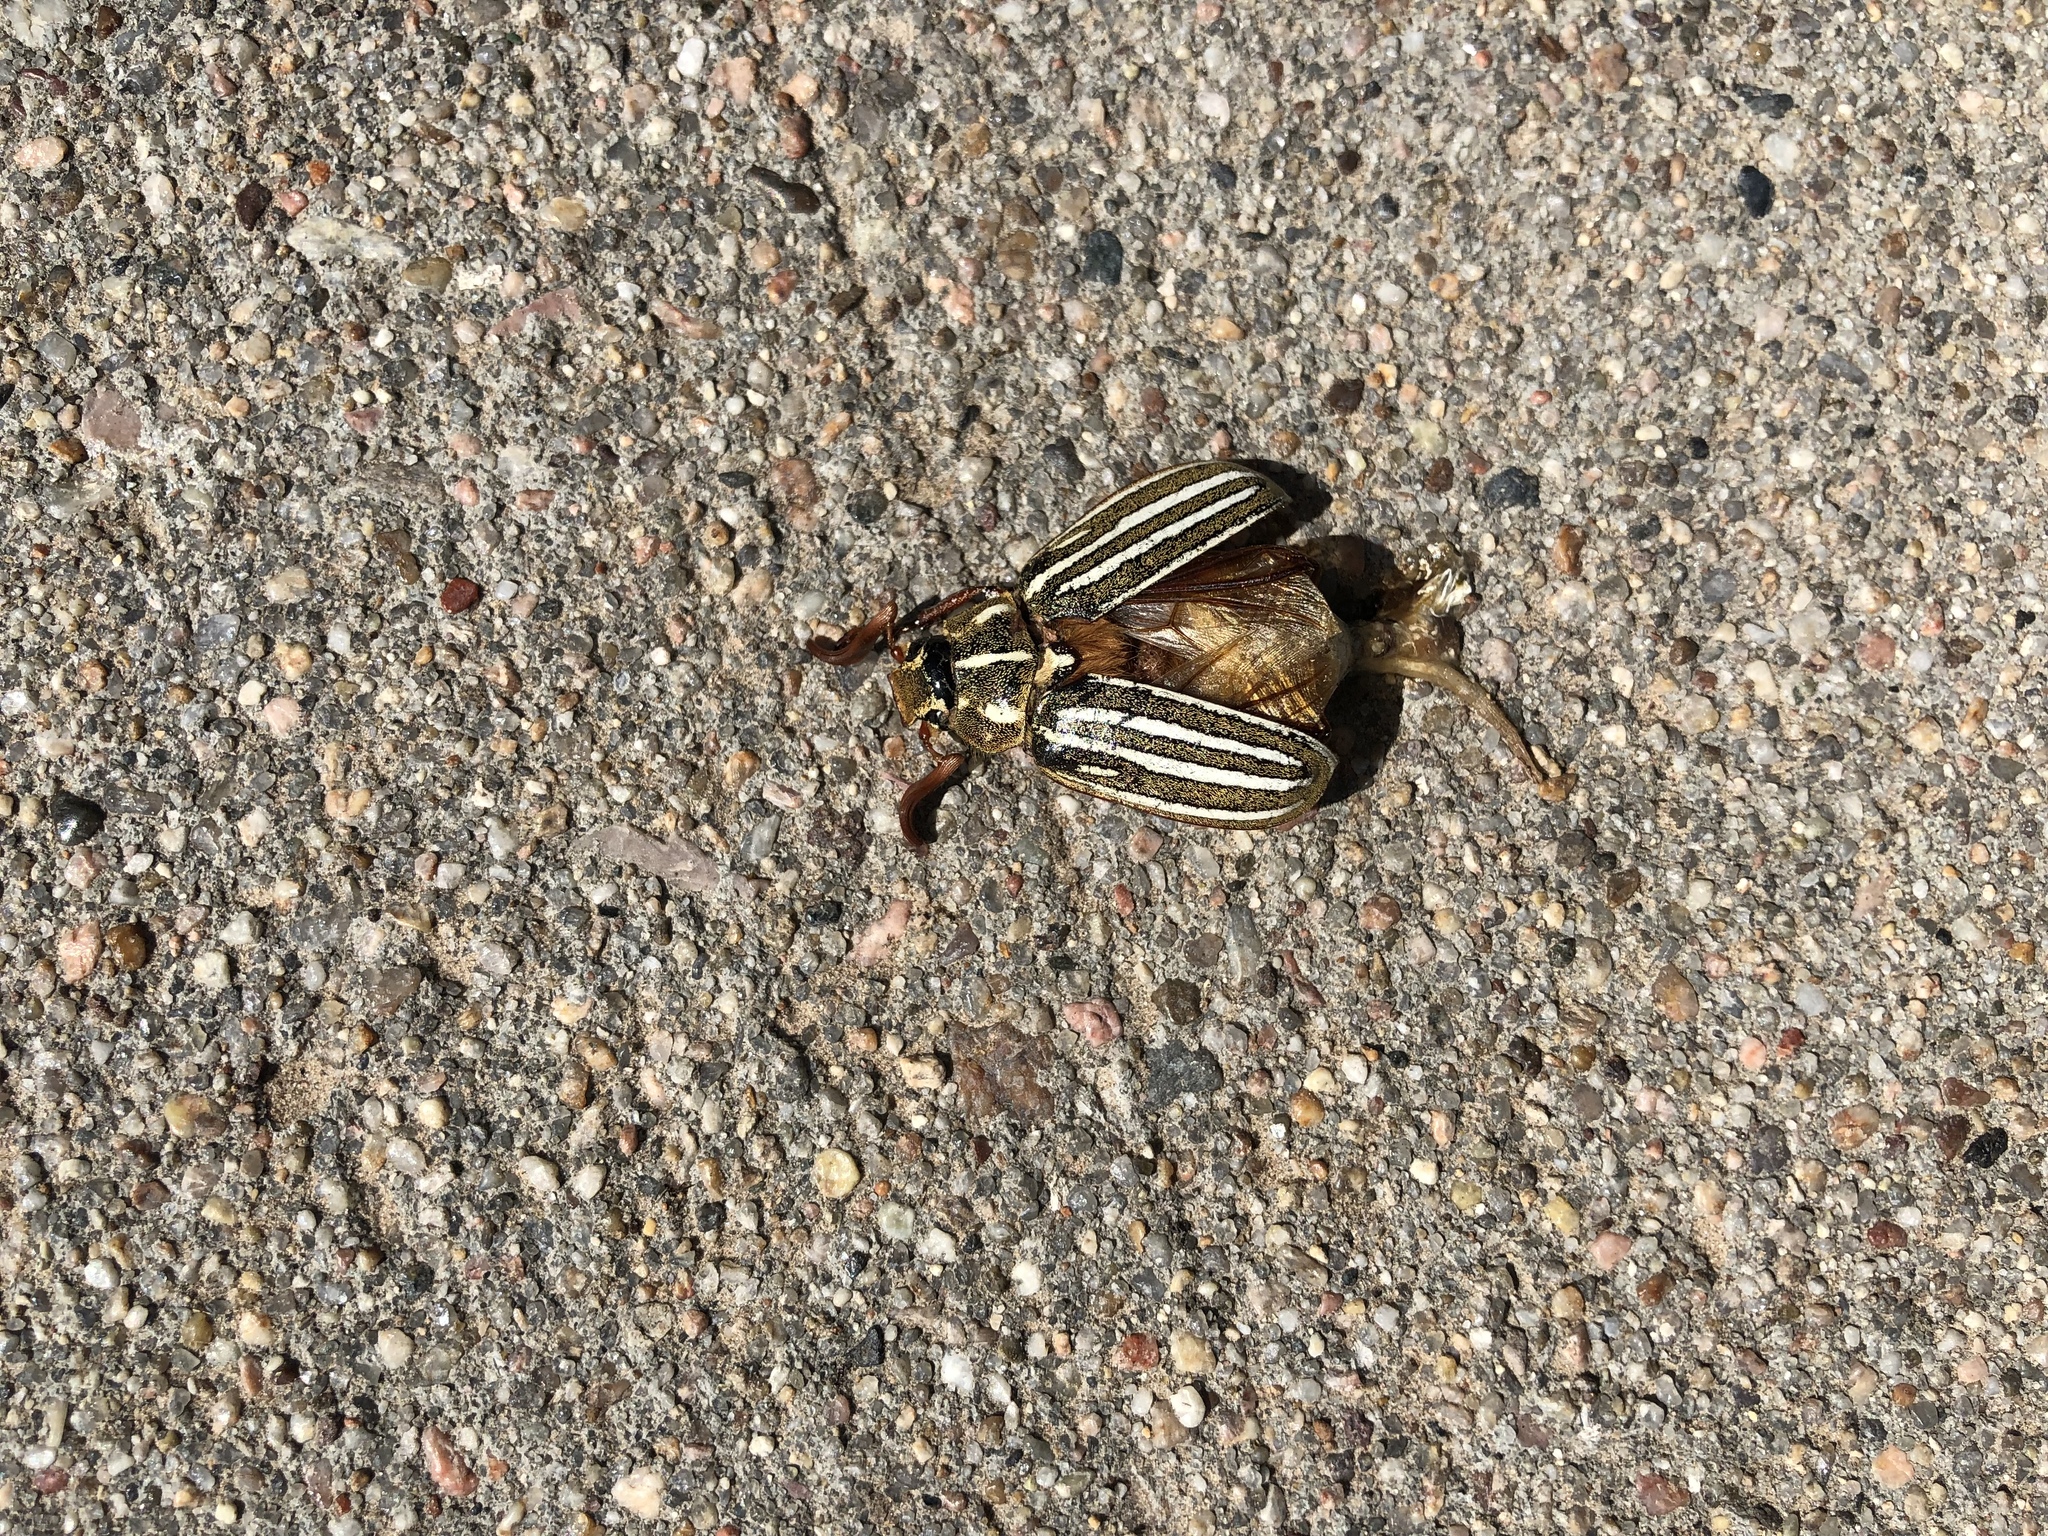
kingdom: Animalia
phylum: Arthropoda
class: Insecta
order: Coleoptera
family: Scarabaeidae
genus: Polyphylla
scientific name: Polyphylla decemlineata
